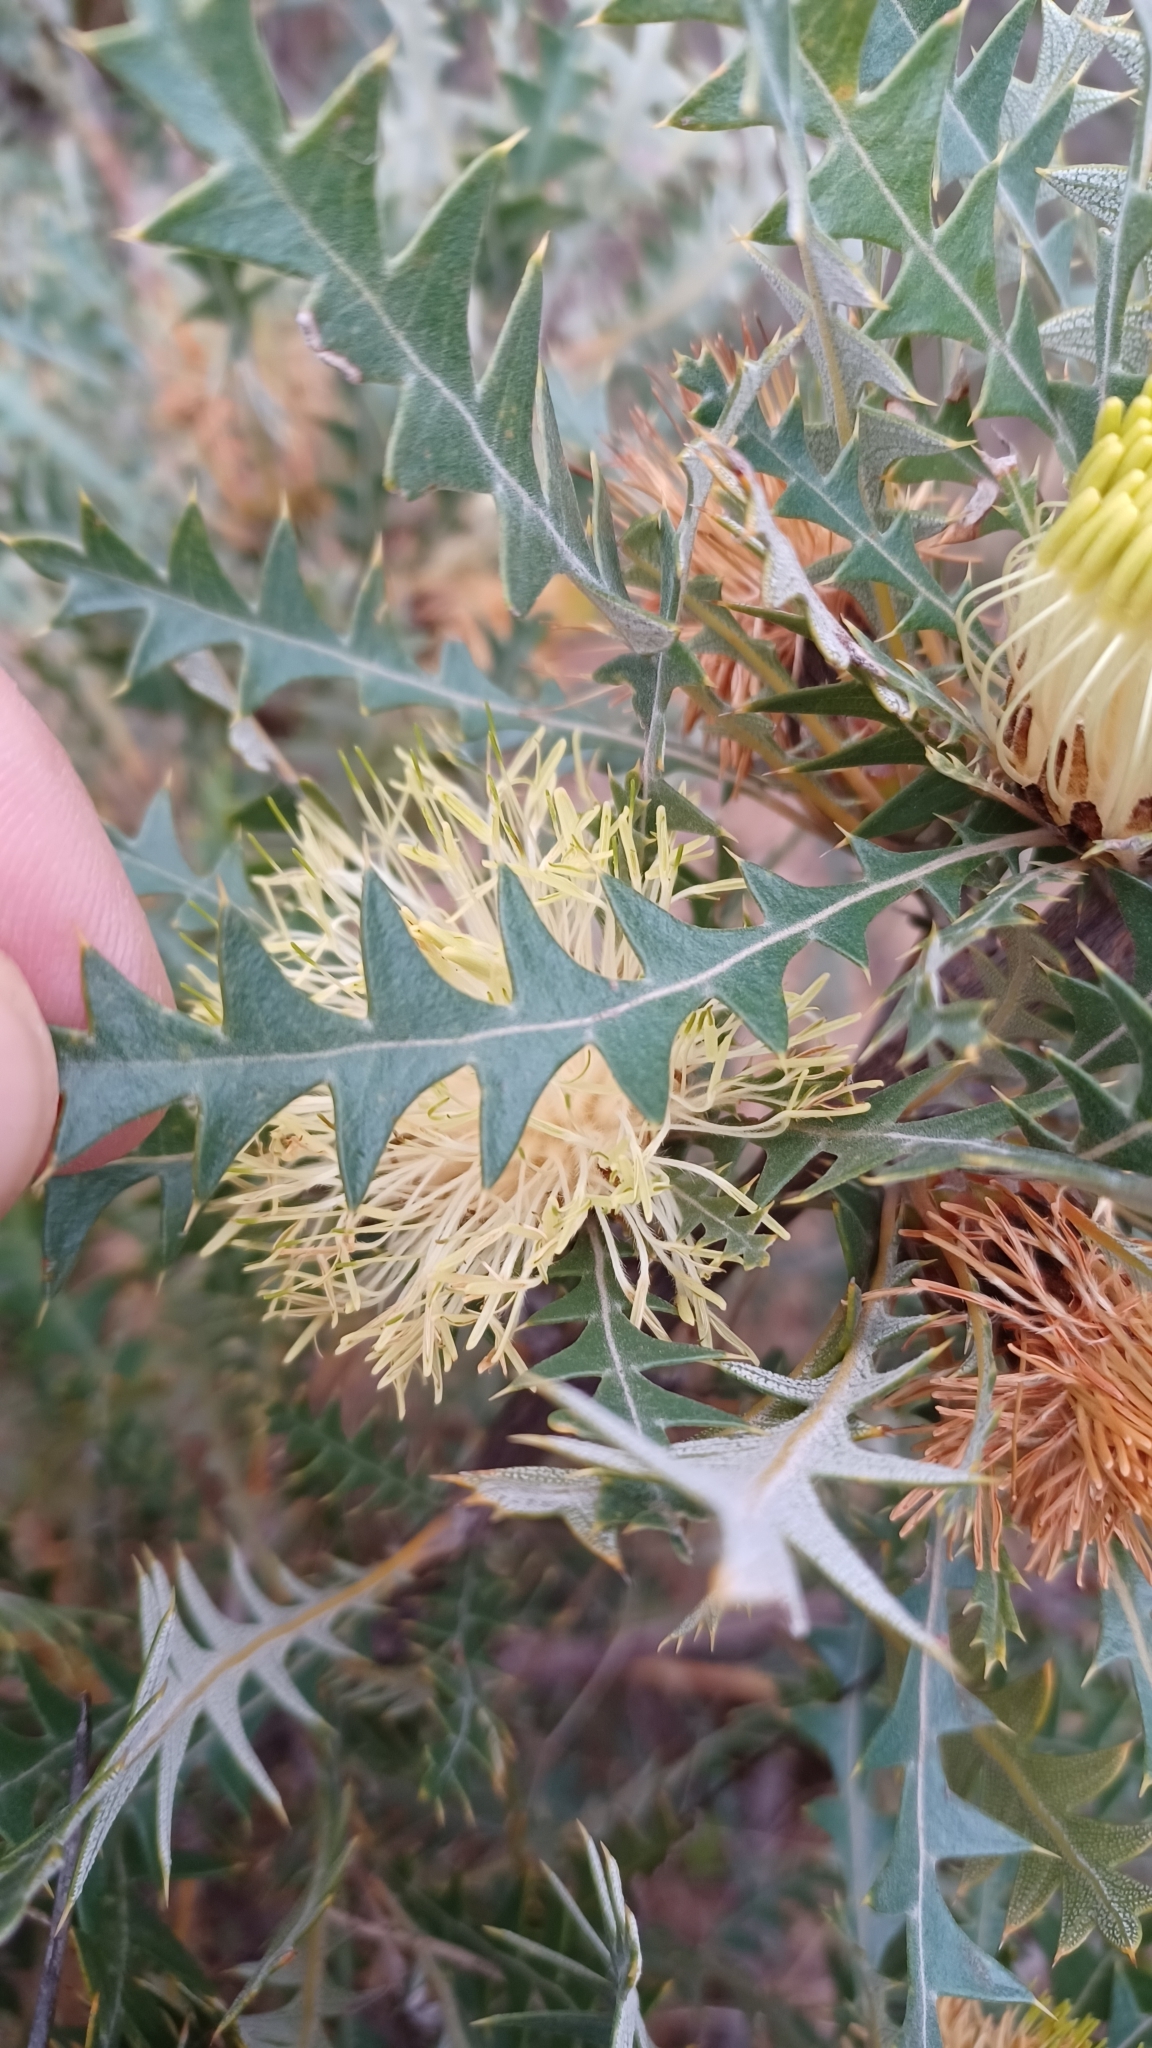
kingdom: Plantae
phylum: Tracheophyta
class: Magnoliopsida
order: Proteales
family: Proteaceae
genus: Banksia
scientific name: Banksia armata
